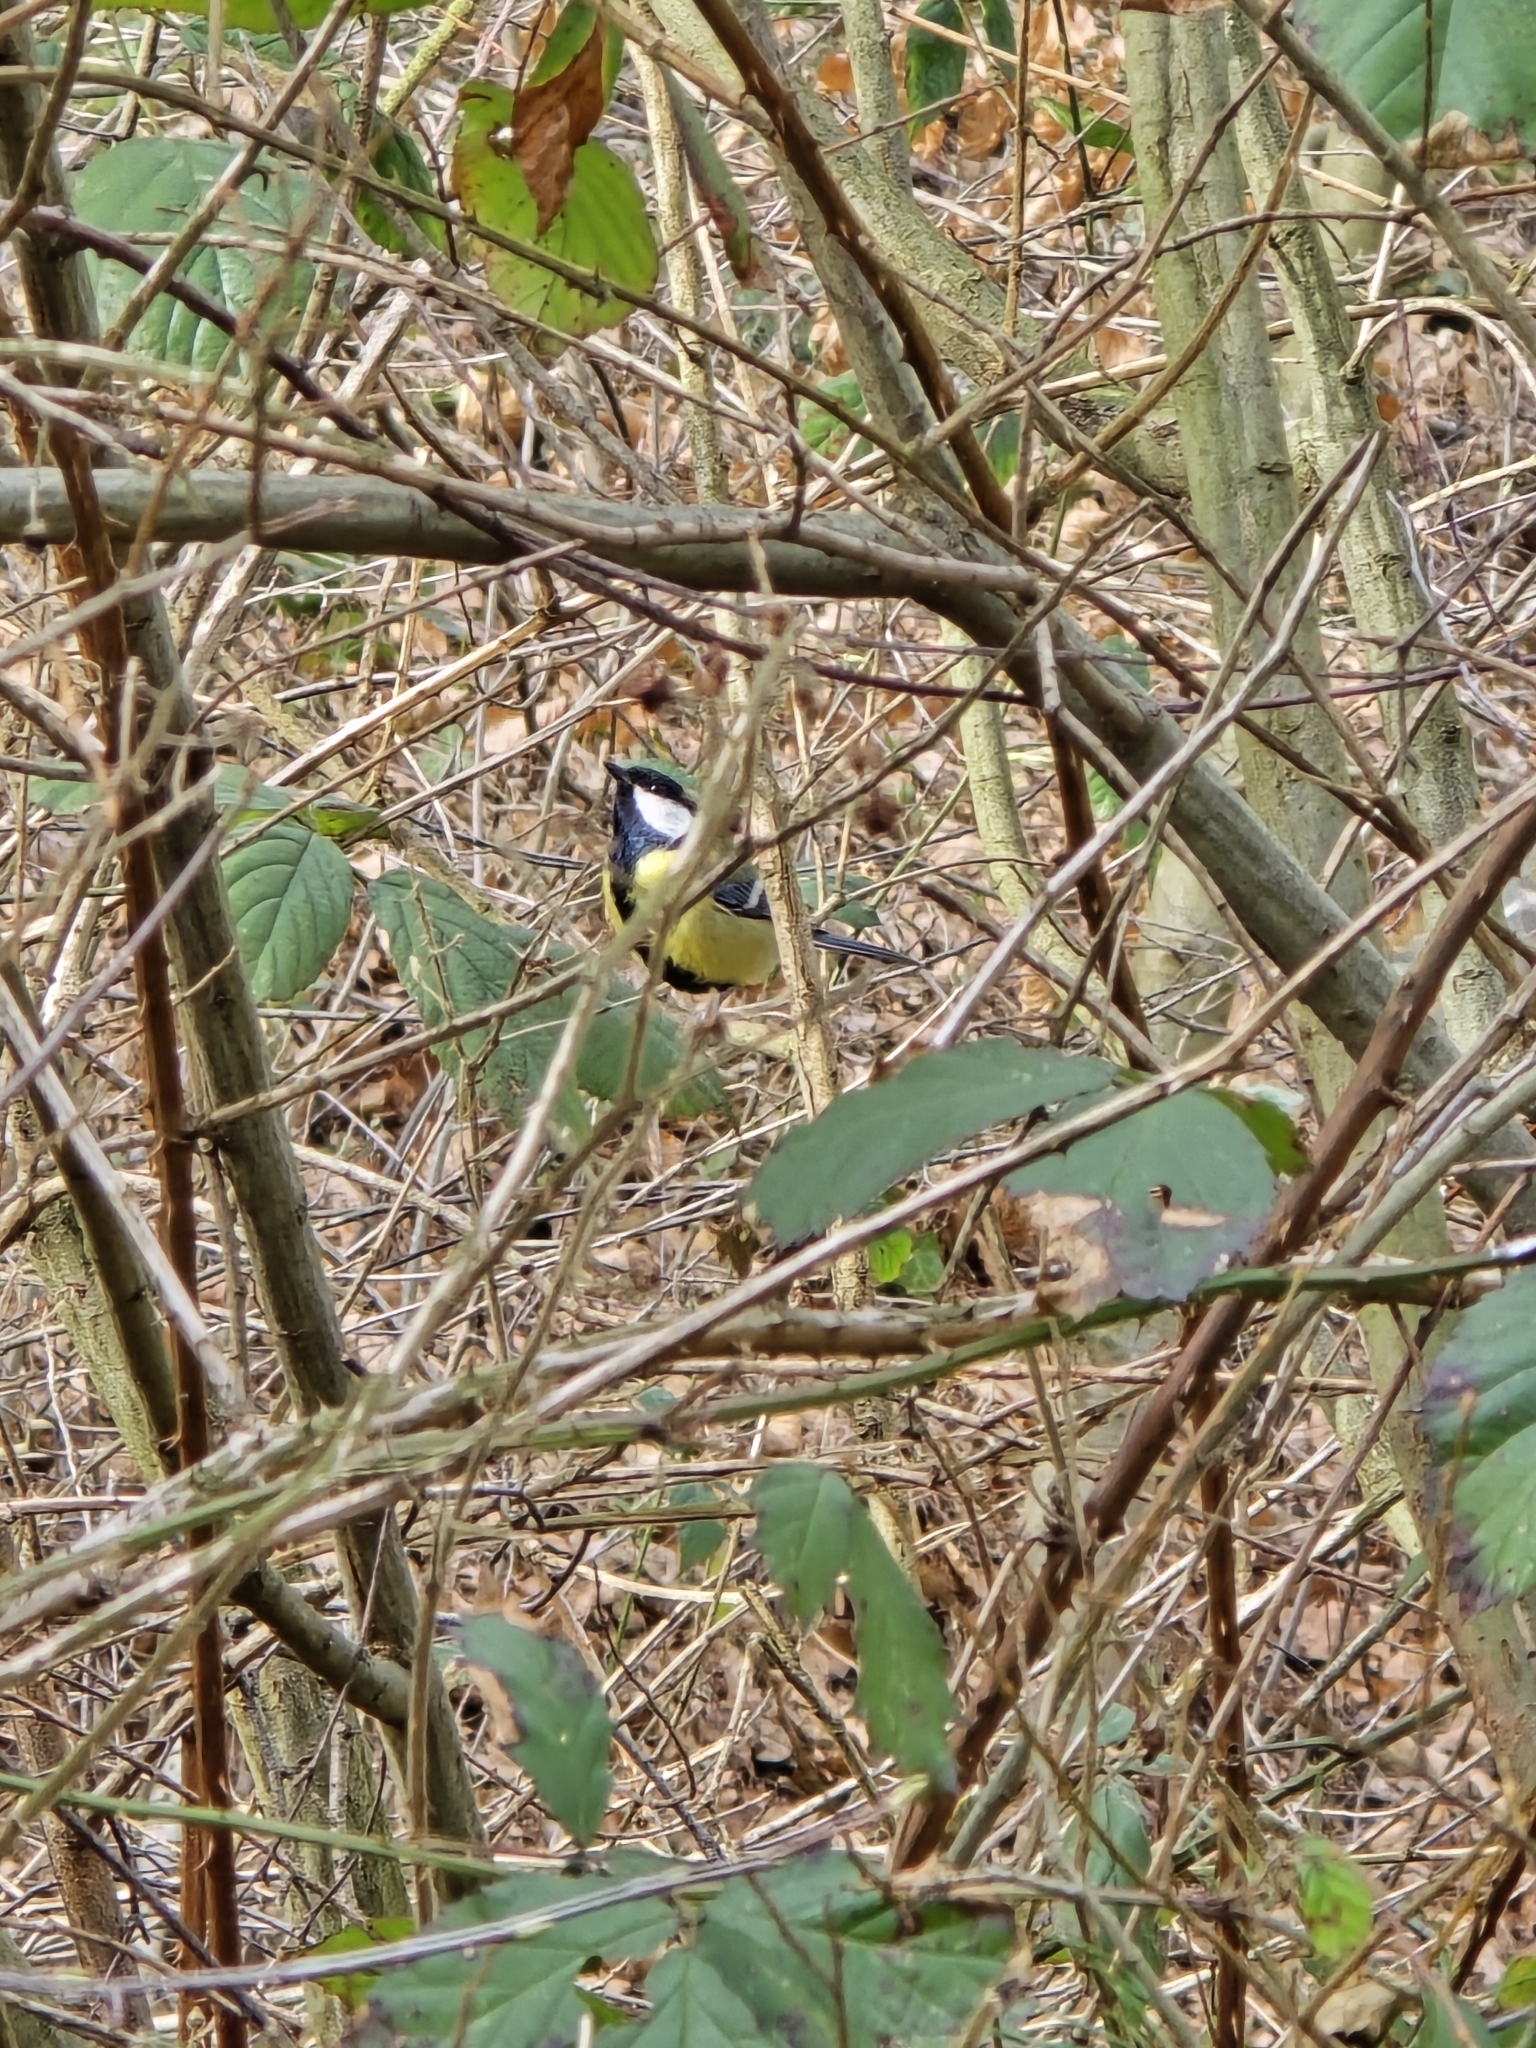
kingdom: Animalia
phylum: Chordata
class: Aves
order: Passeriformes
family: Paridae
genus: Parus
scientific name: Parus major
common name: Great tit
